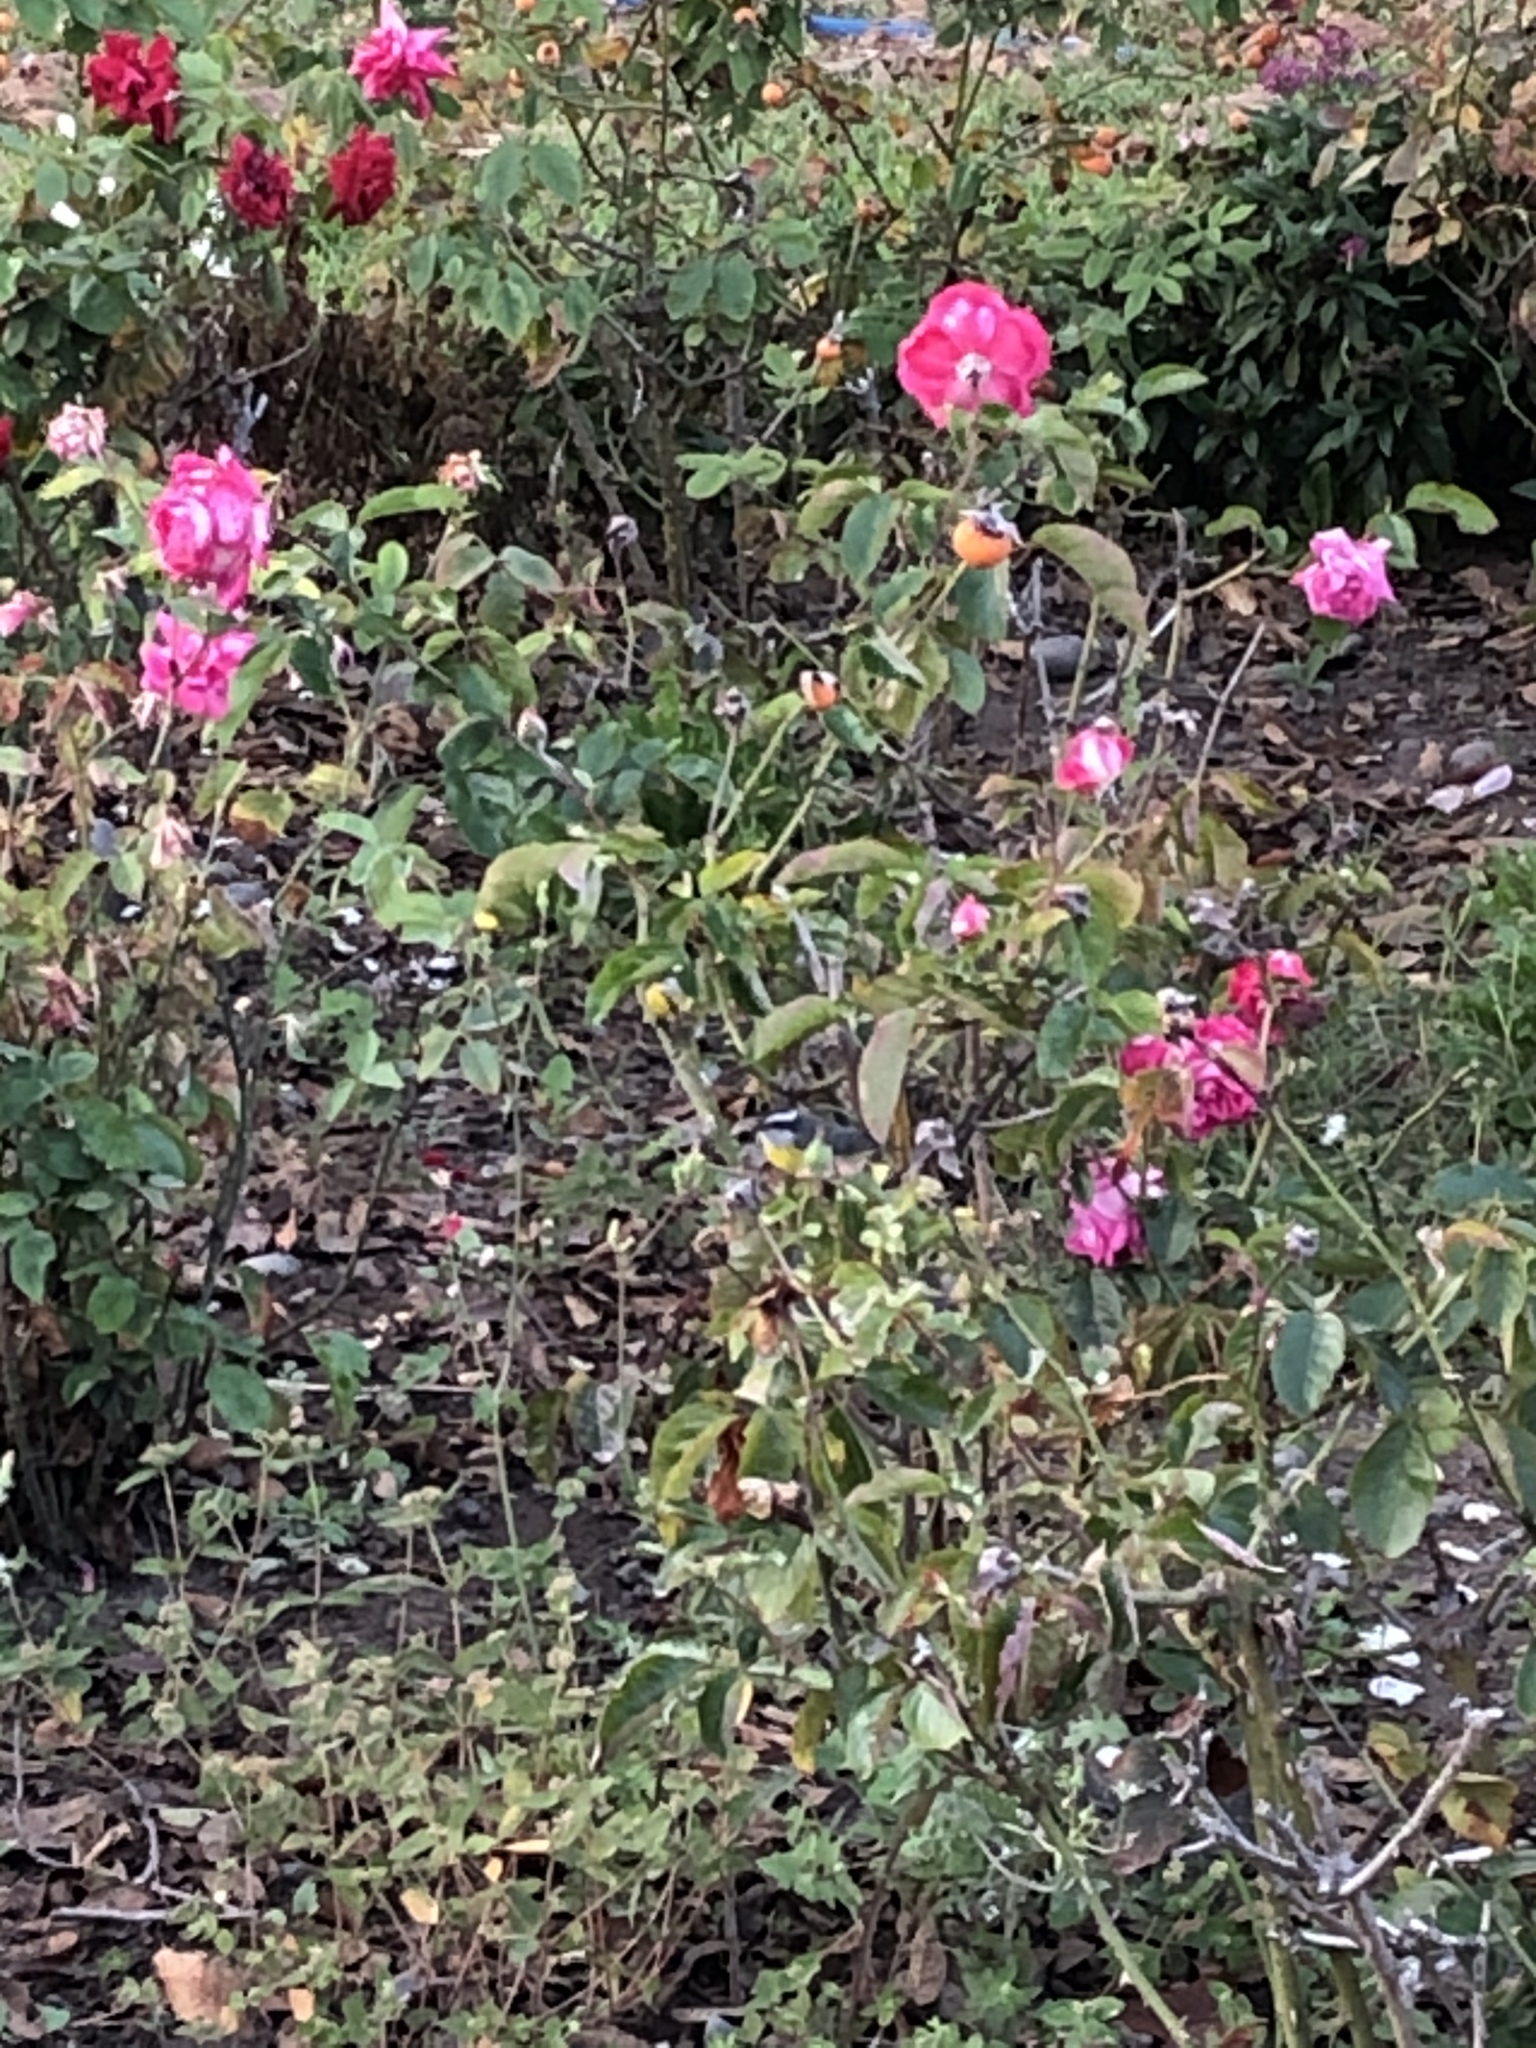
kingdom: Animalia
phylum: Chordata
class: Aves
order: Passeriformes
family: Thraupidae
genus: Coereba
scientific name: Coereba flaveola
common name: Bananaquit
